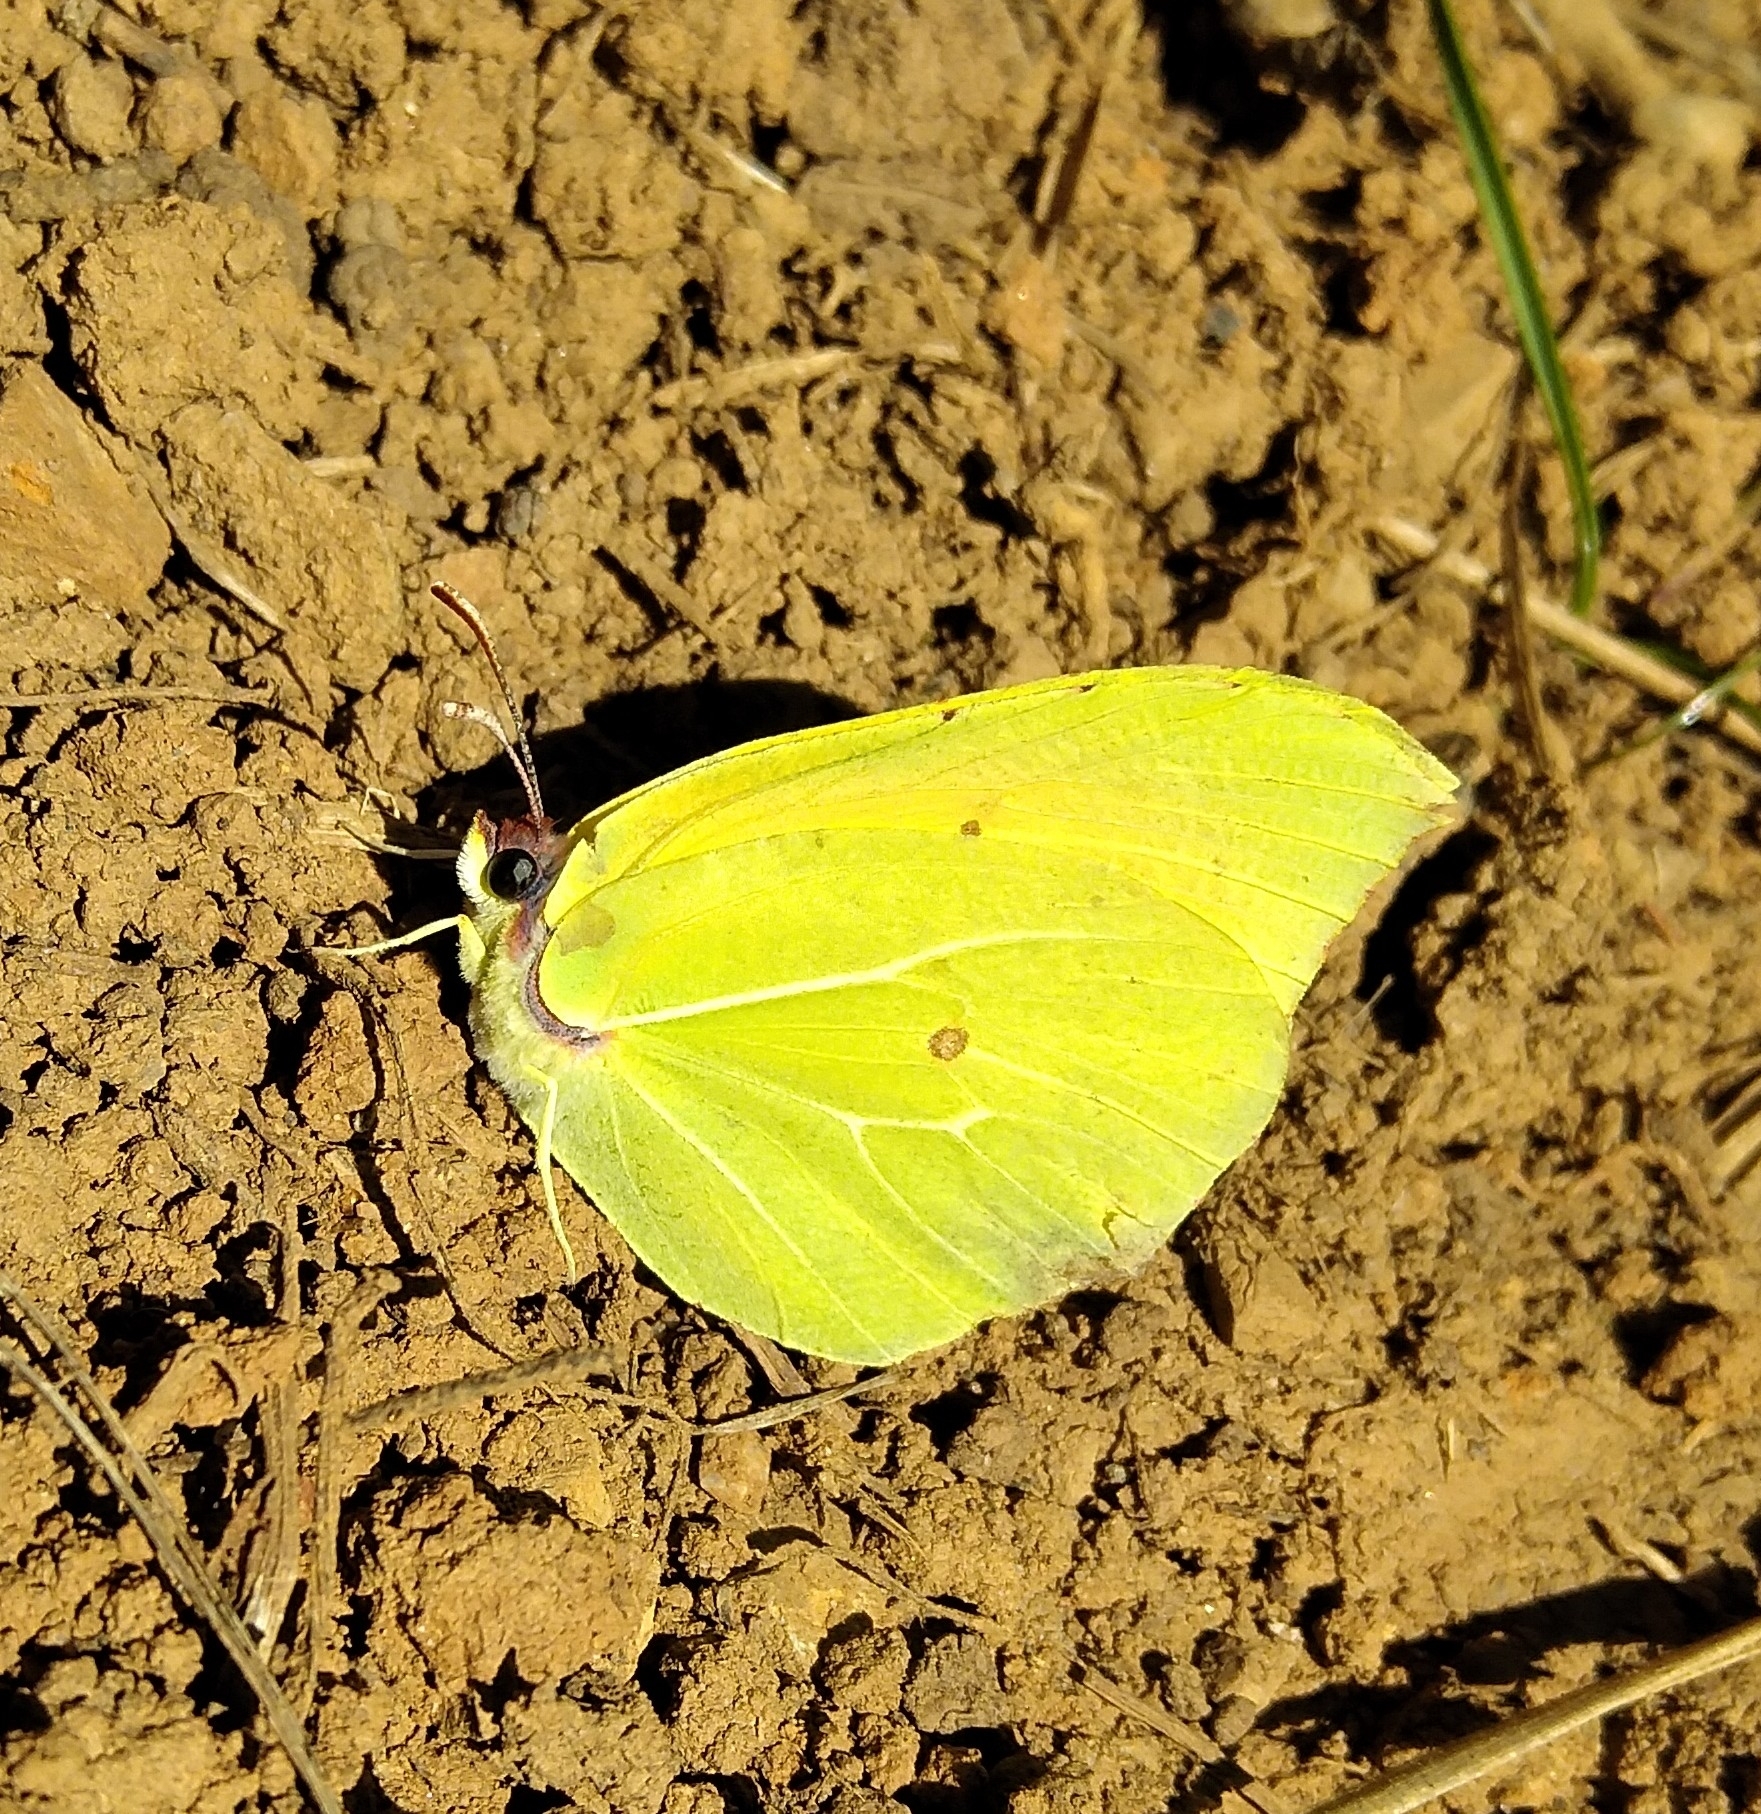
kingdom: Animalia
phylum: Arthropoda
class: Insecta
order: Lepidoptera
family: Pieridae
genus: Gonepteryx
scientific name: Gonepteryx rhamni
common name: Brimstone
